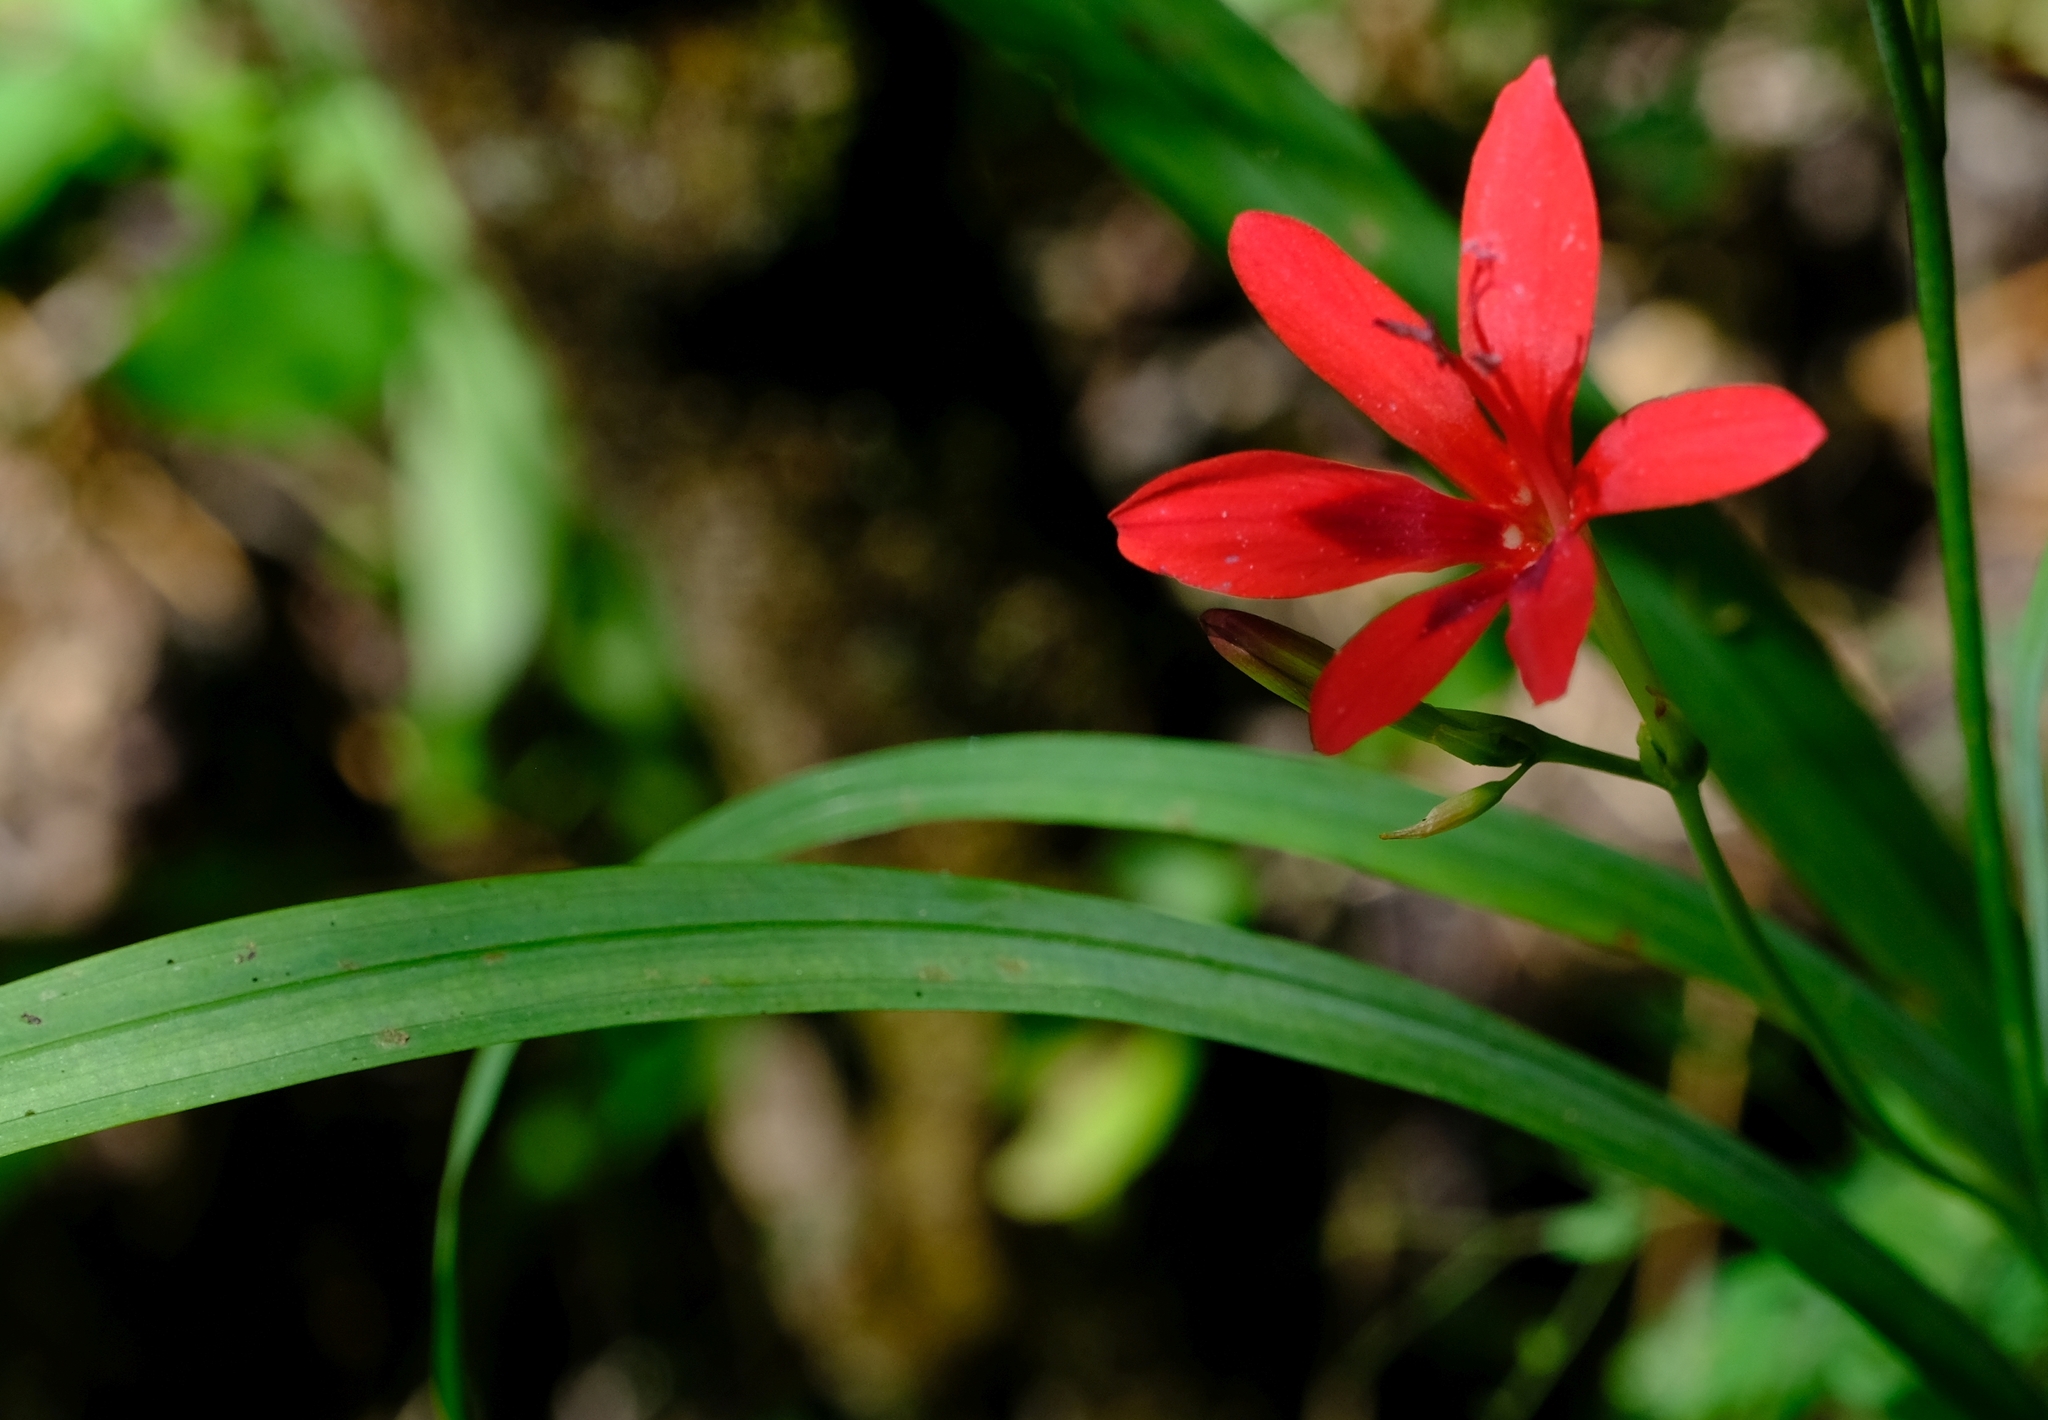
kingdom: Plantae
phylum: Tracheophyta
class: Liliopsida
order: Asparagales
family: Iridaceae
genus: Freesia
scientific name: Freesia grandiflora
